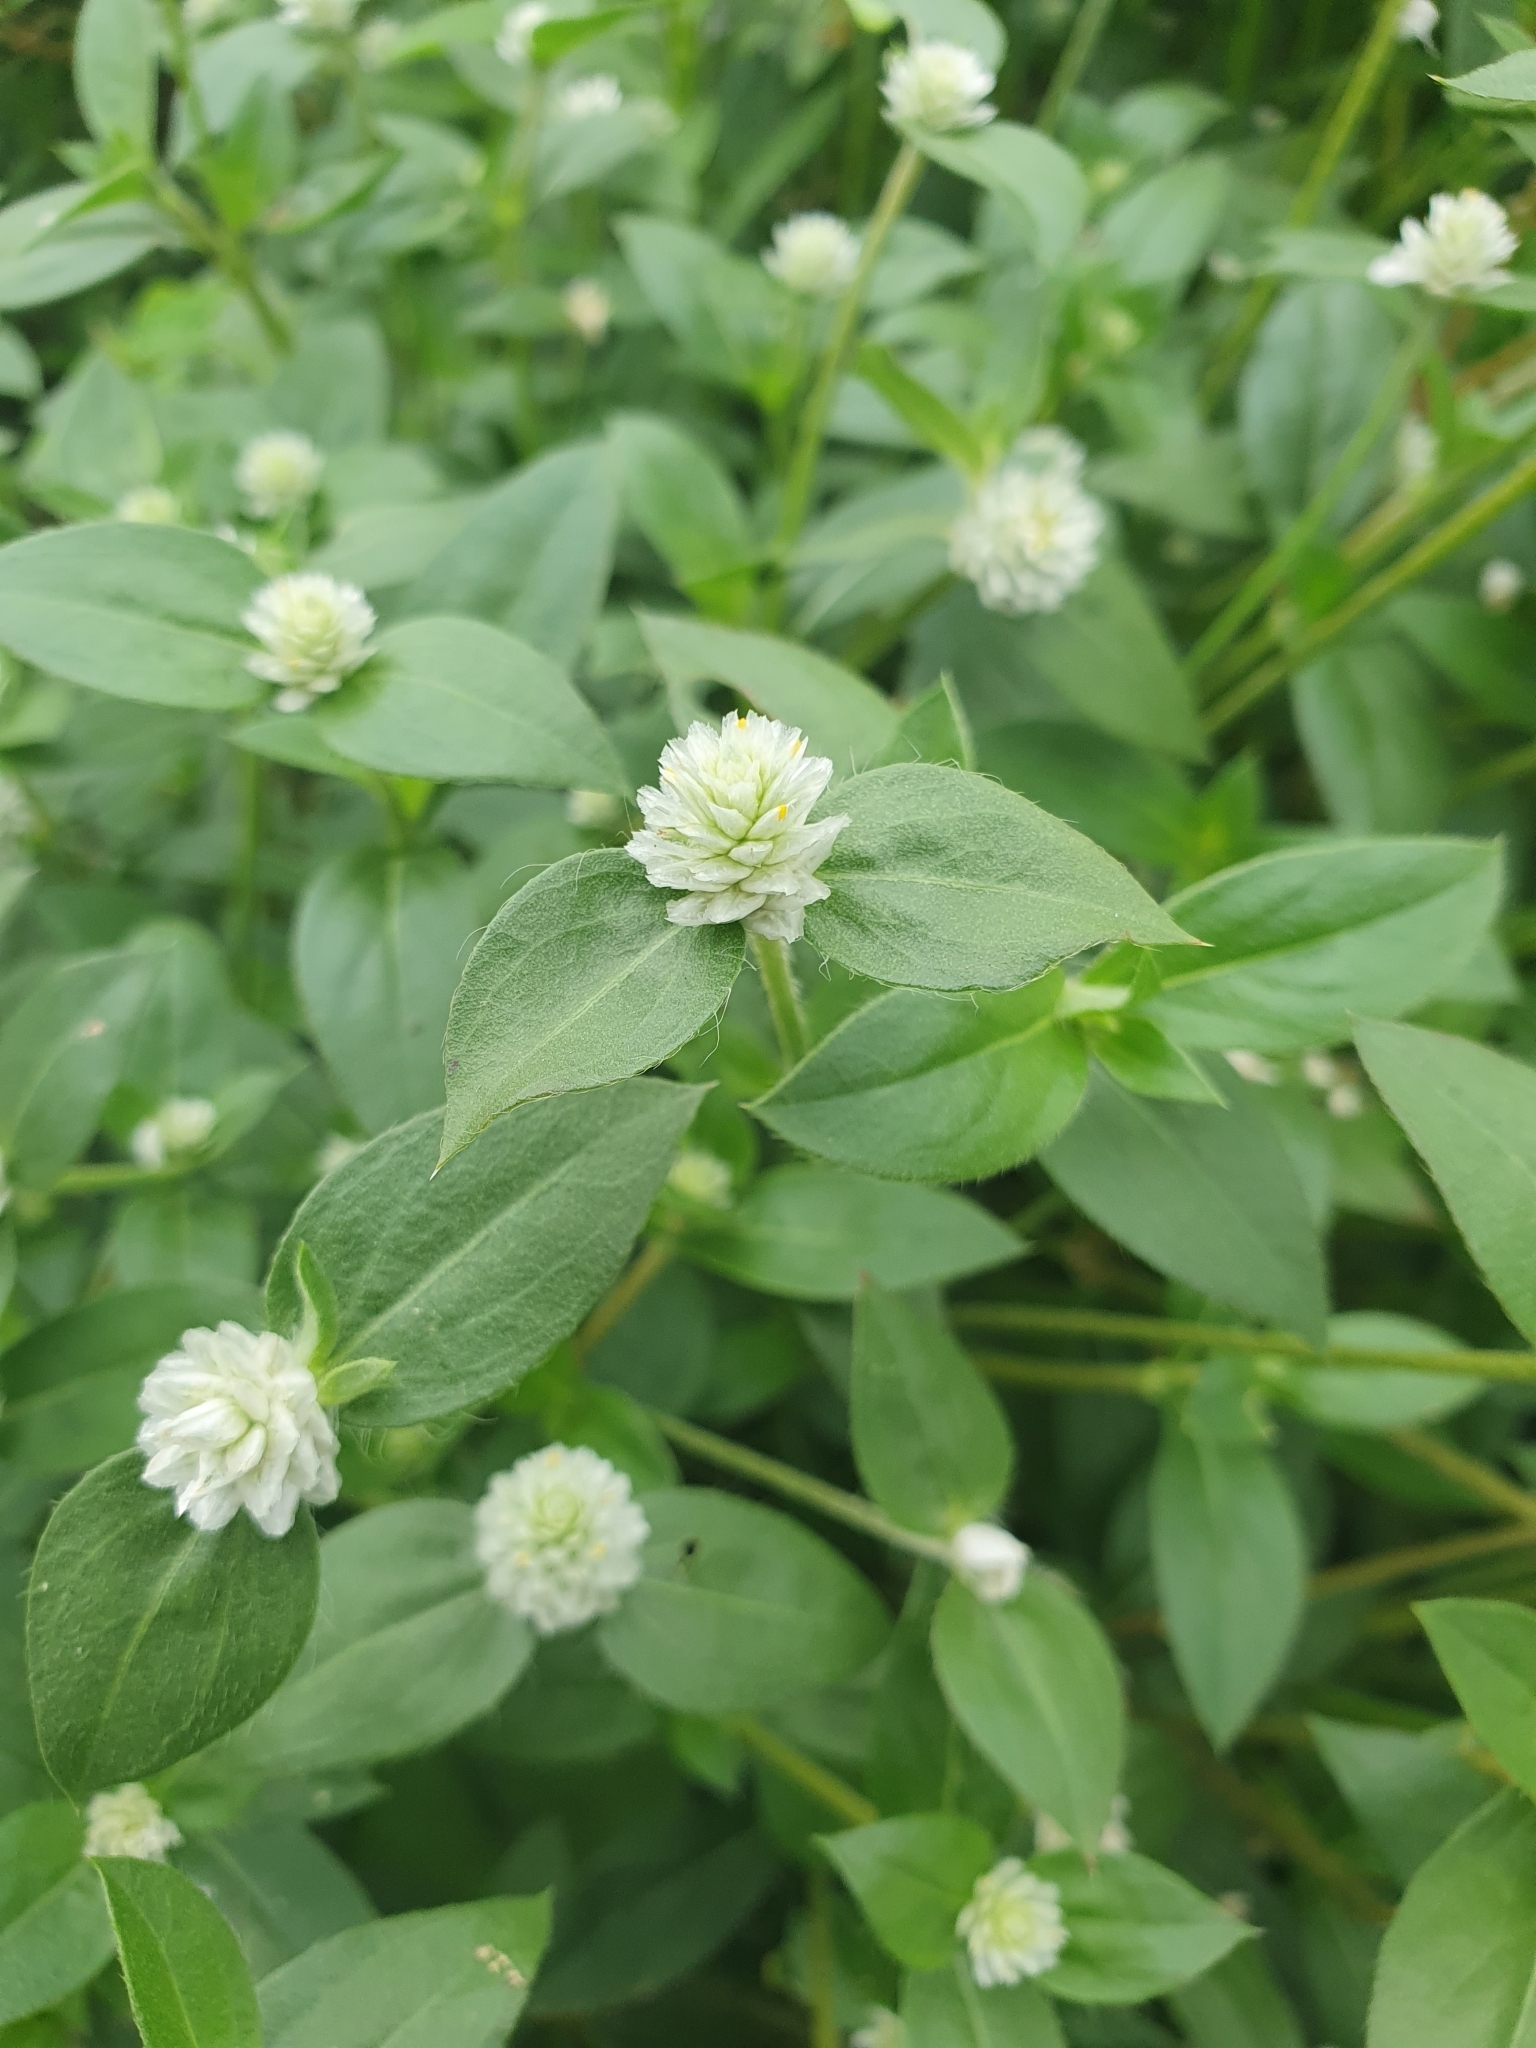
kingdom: Plantae
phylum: Tracheophyta
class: Magnoliopsida
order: Caryophyllales
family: Amaranthaceae
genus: Gomphrena
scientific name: Gomphrena celosioides
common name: Gomphrena-weed
